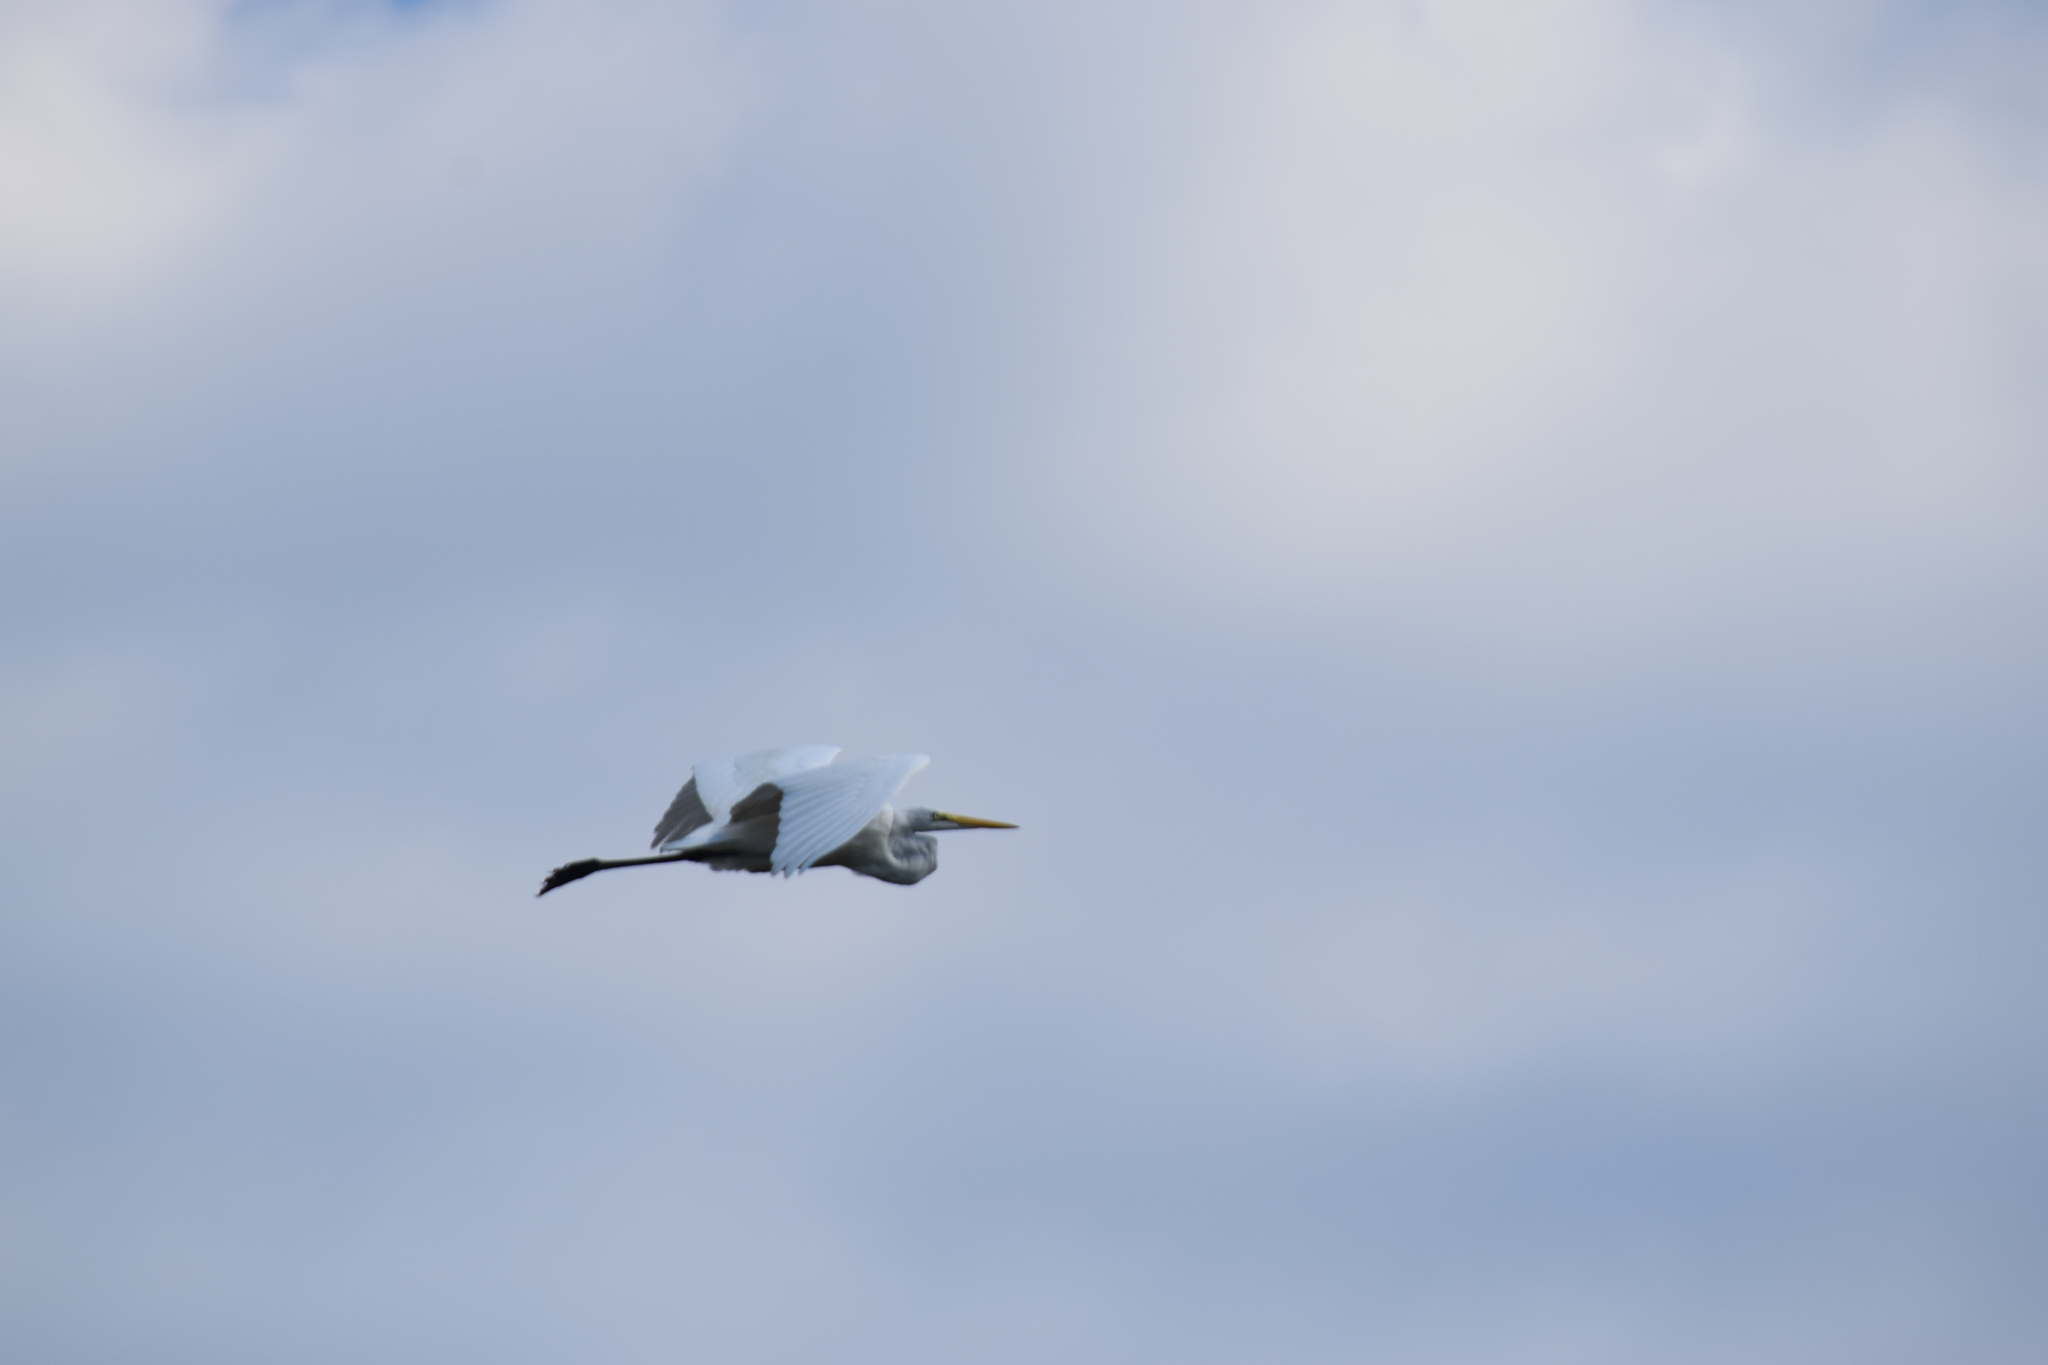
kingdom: Animalia
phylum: Chordata
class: Aves
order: Pelecaniformes
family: Ardeidae
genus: Ardea
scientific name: Ardea alba
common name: Great egret
